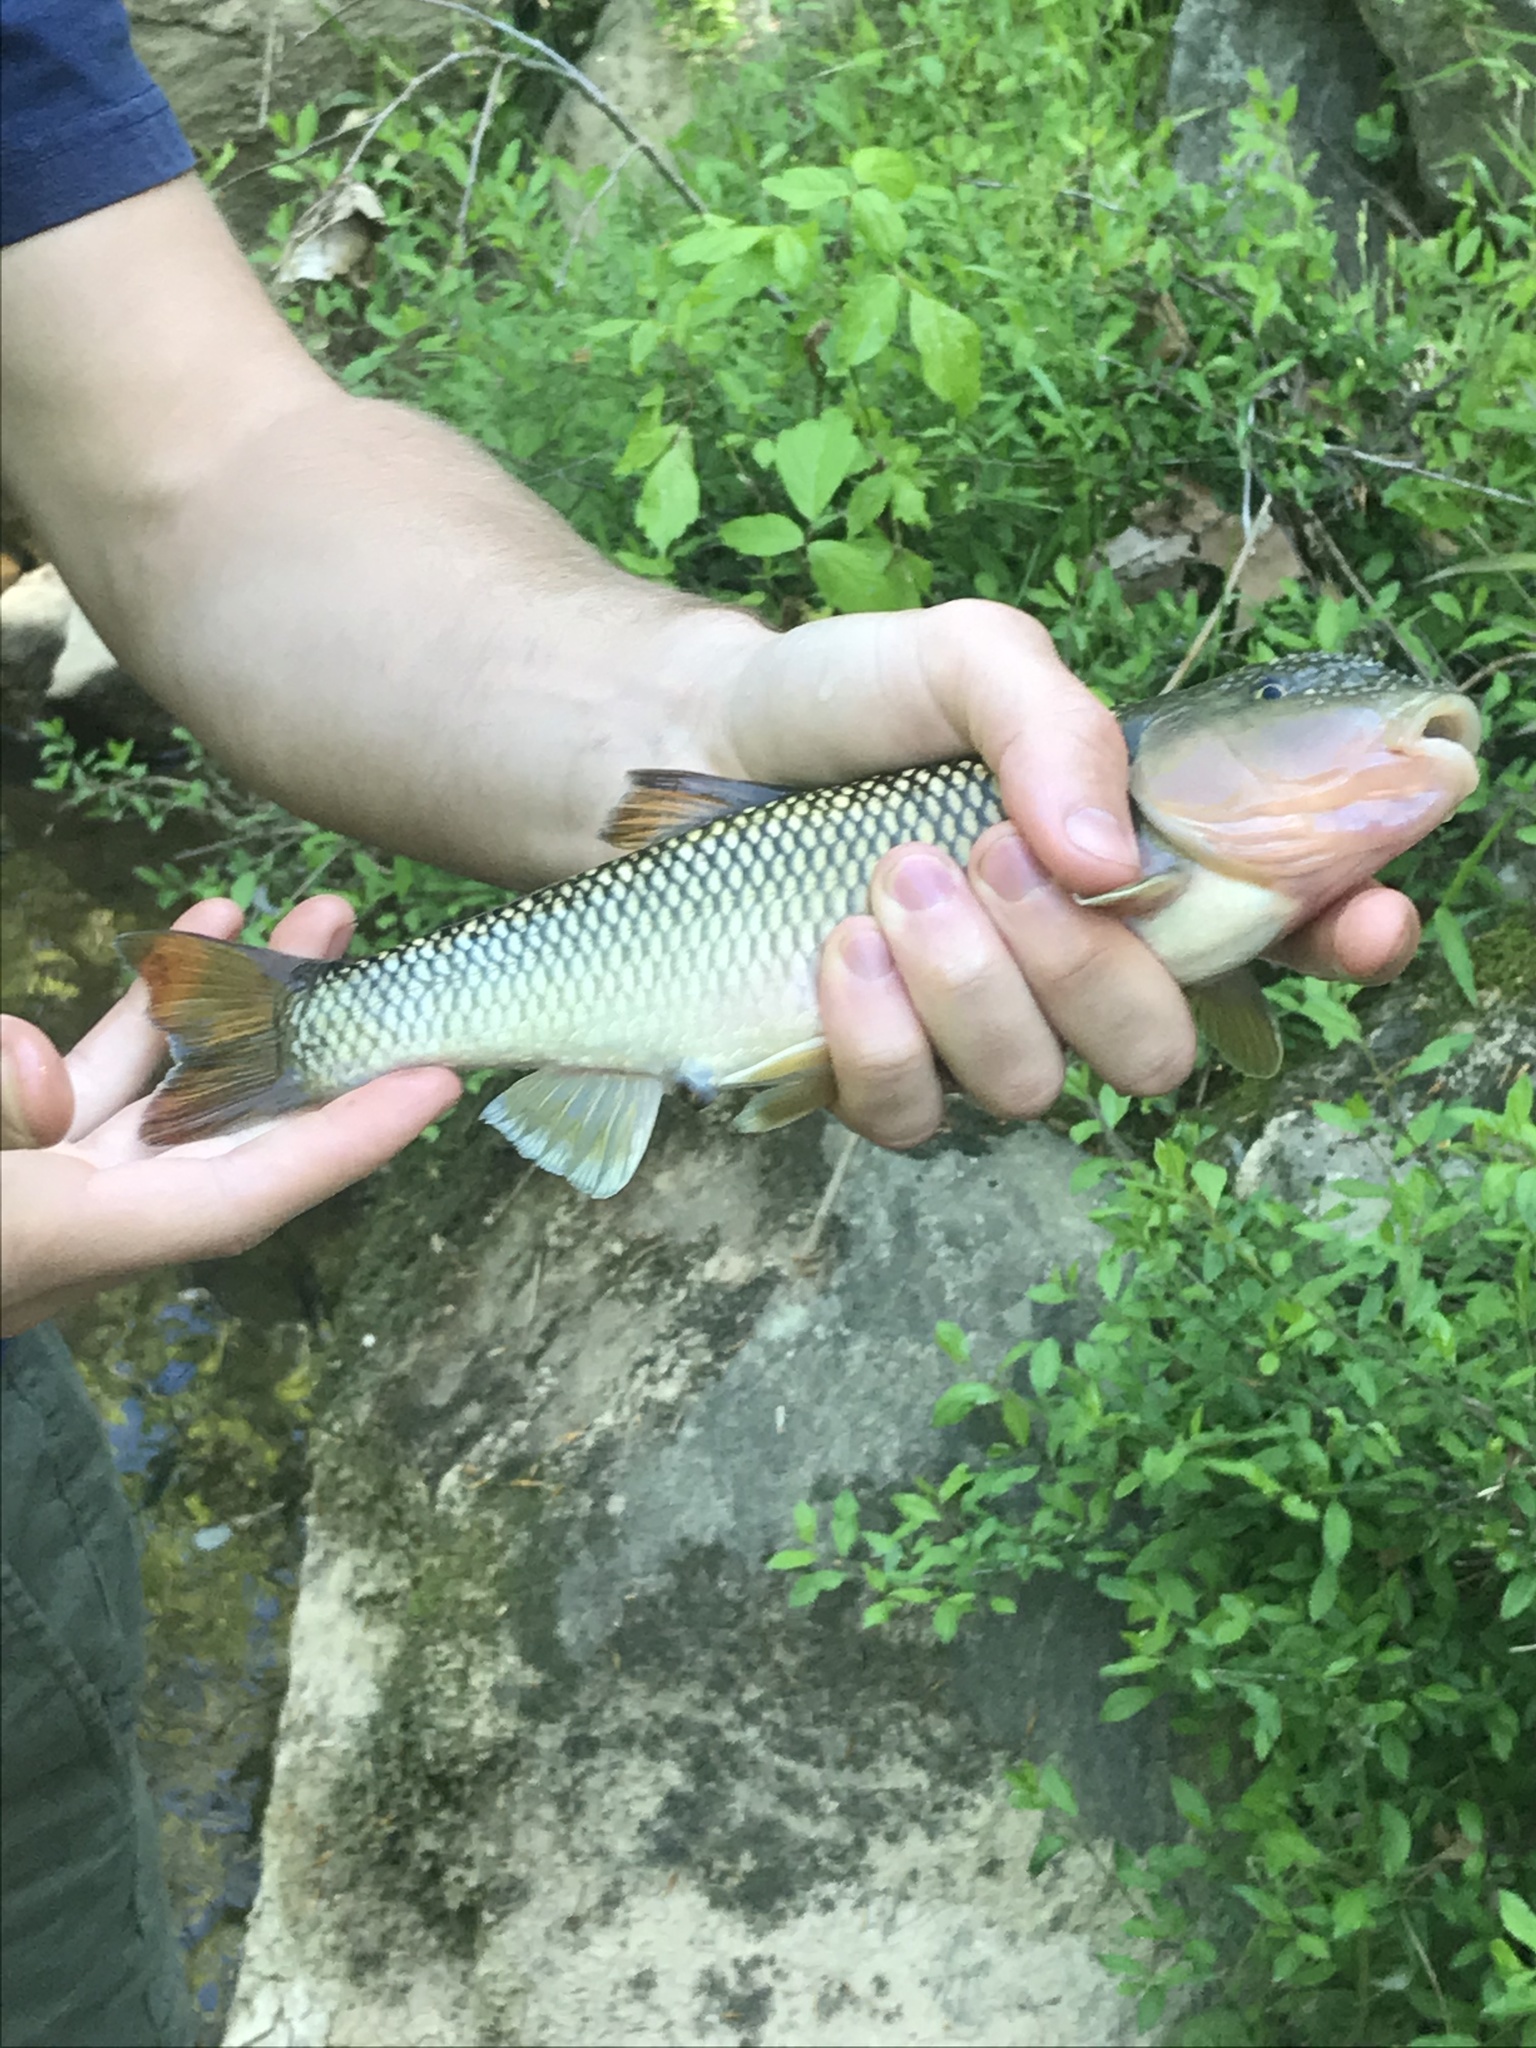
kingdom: Animalia
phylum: Chordata
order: Cypriniformes
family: Cyprinidae
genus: Nocomis
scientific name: Nocomis raneyi
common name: Bull chub
